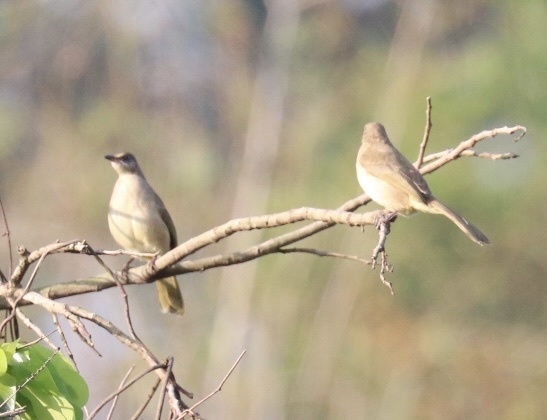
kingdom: Animalia
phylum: Chordata
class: Aves
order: Passeriformes
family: Pycnonotidae
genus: Pycnonotus
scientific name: Pycnonotus blanfordi
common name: Streak-eared bulbul
